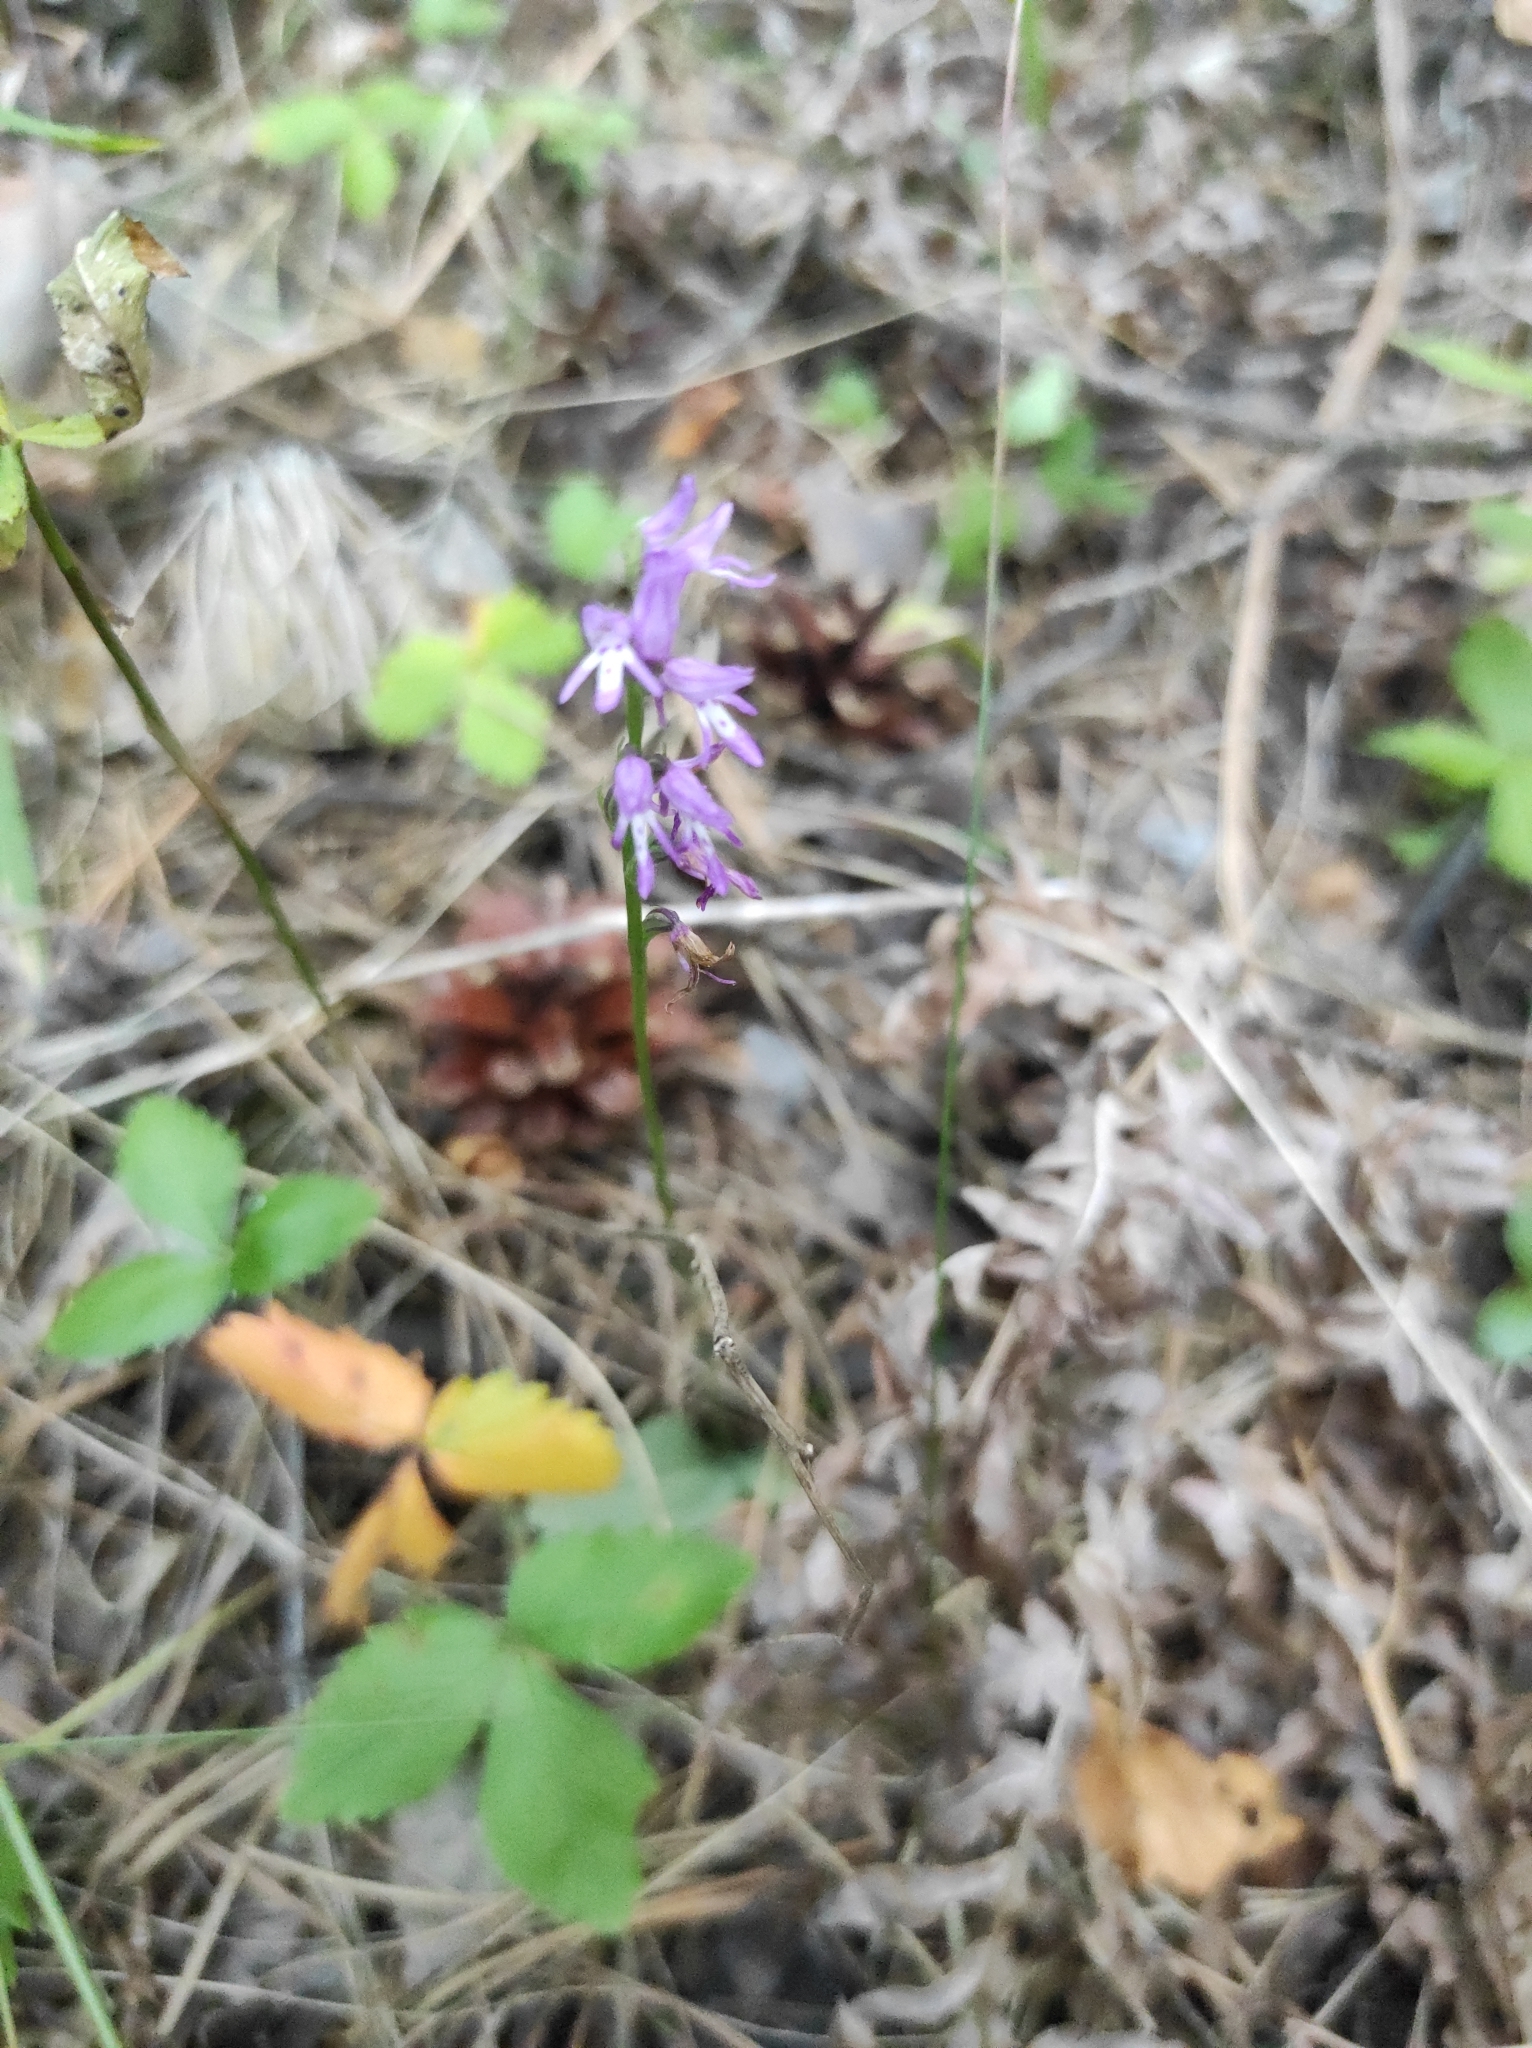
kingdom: Plantae
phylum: Tracheophyta
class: Liliopsida
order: Asparagales
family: Orchidaceae
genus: Hemipilia
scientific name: Hemipilia cucullata
